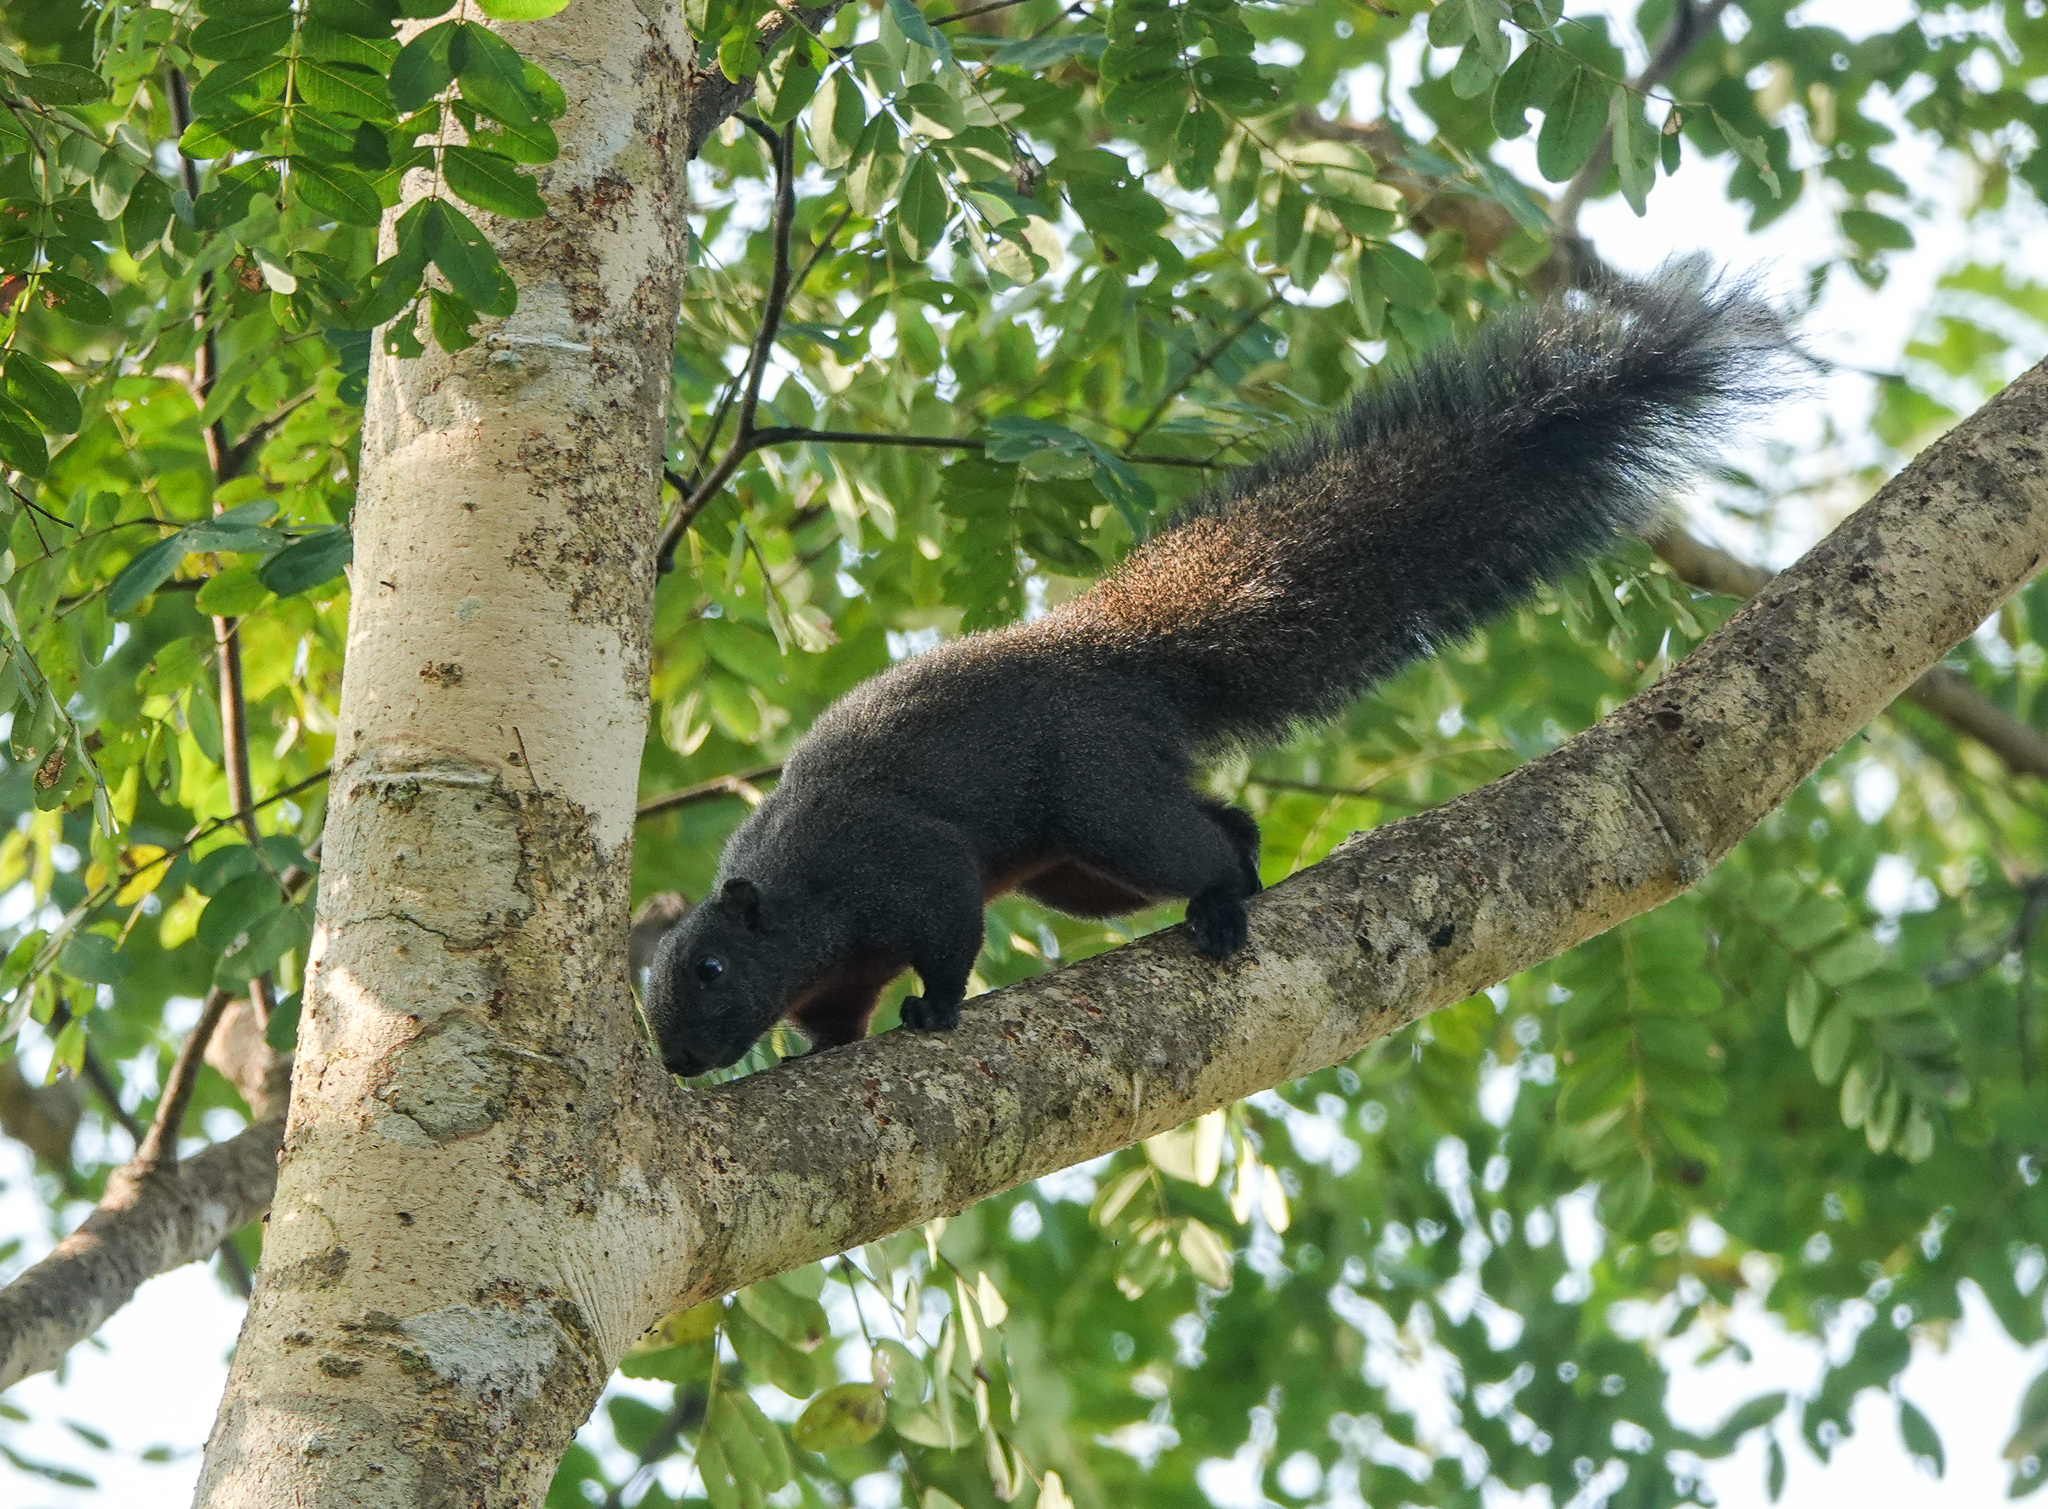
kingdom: Animalia
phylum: Chordata
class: Mammalia
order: Rodentia
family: Sciuridae
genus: Callosciurus
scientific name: Callosciurus erythraeus
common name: Pallas's squirrel
